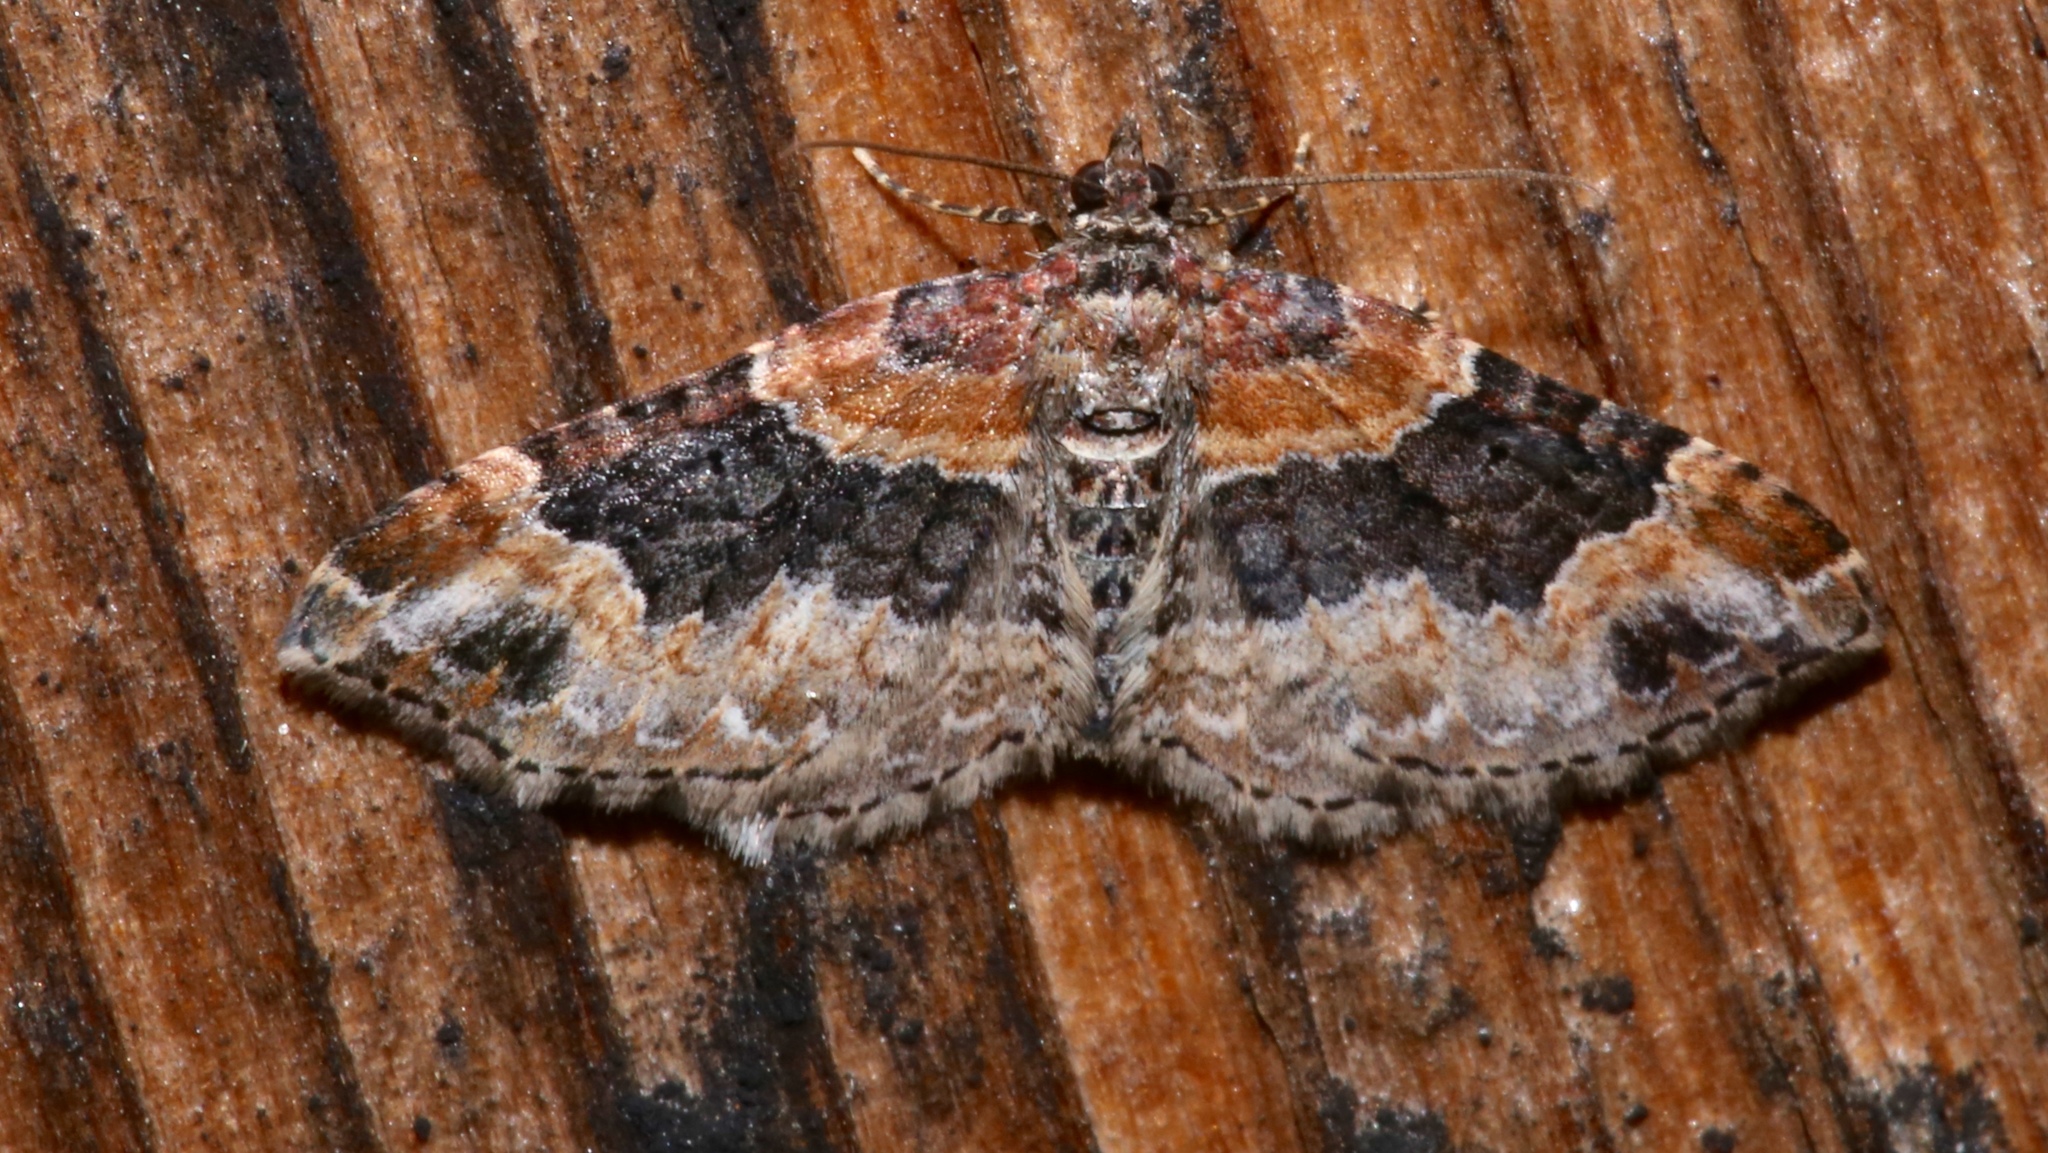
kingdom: Animalia
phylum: Arthropoda
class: Insecta
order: Lepidoptera
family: Geometridae
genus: Xanthorhoe
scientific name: Xanthorhoe ferrugata
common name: Dark-barred twin-spot carpet
